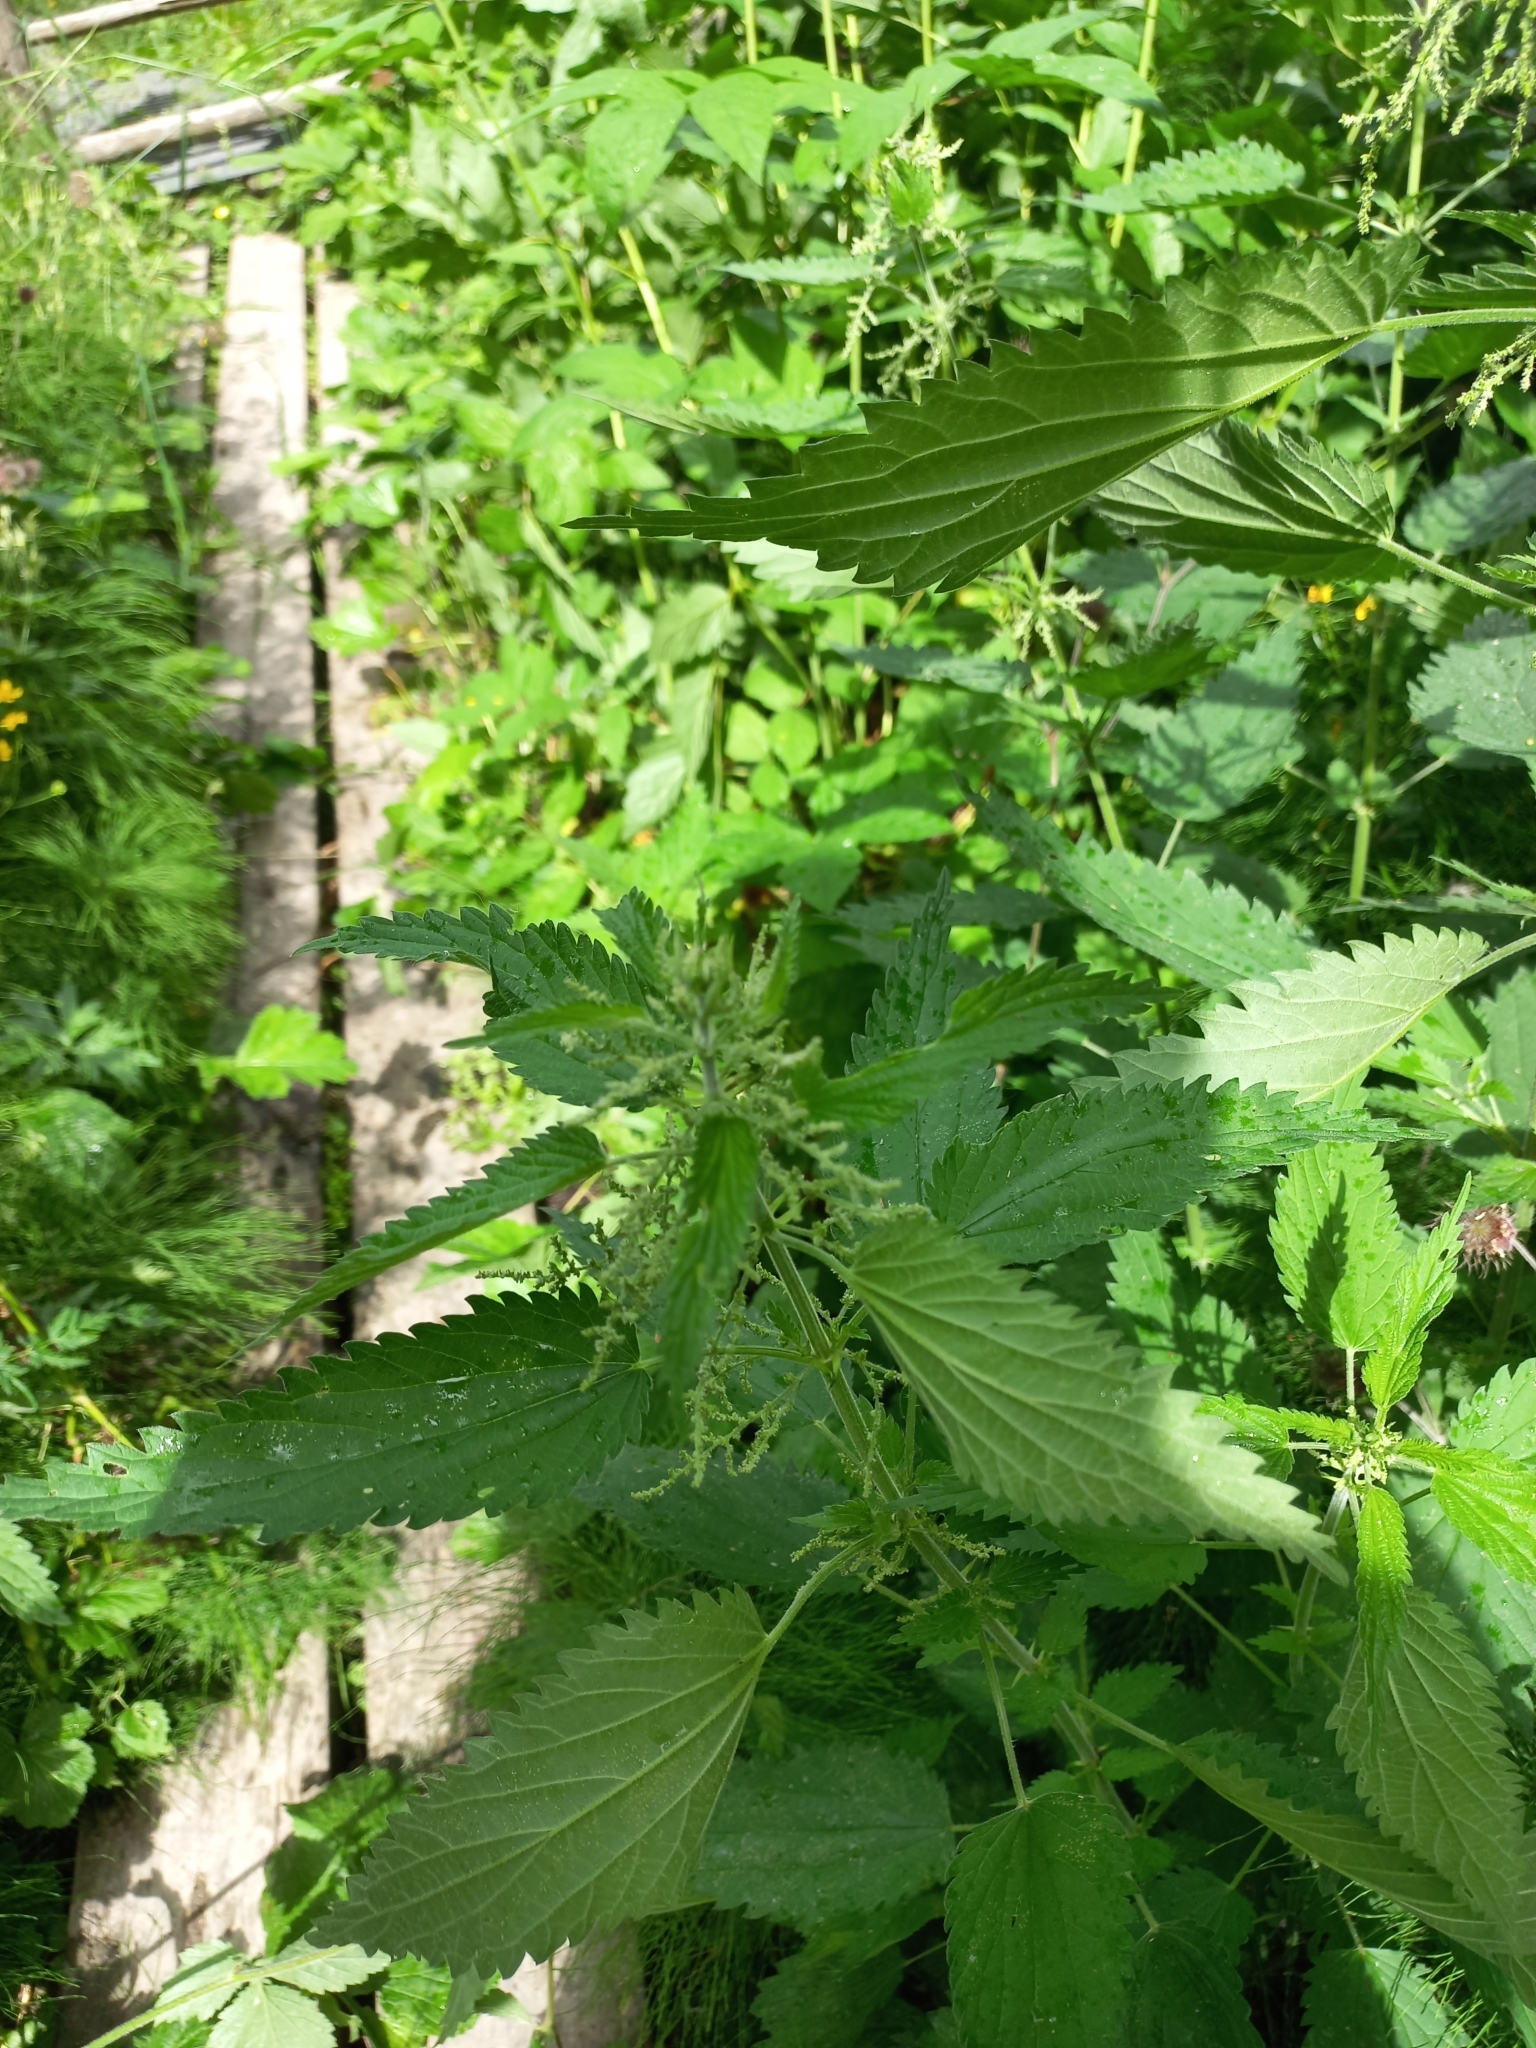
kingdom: Plantae
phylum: Tracheophyta
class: Magnoliopsida
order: Rosales
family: Urticaceae
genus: Urtica
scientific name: Urtica dioica
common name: Common nettle
